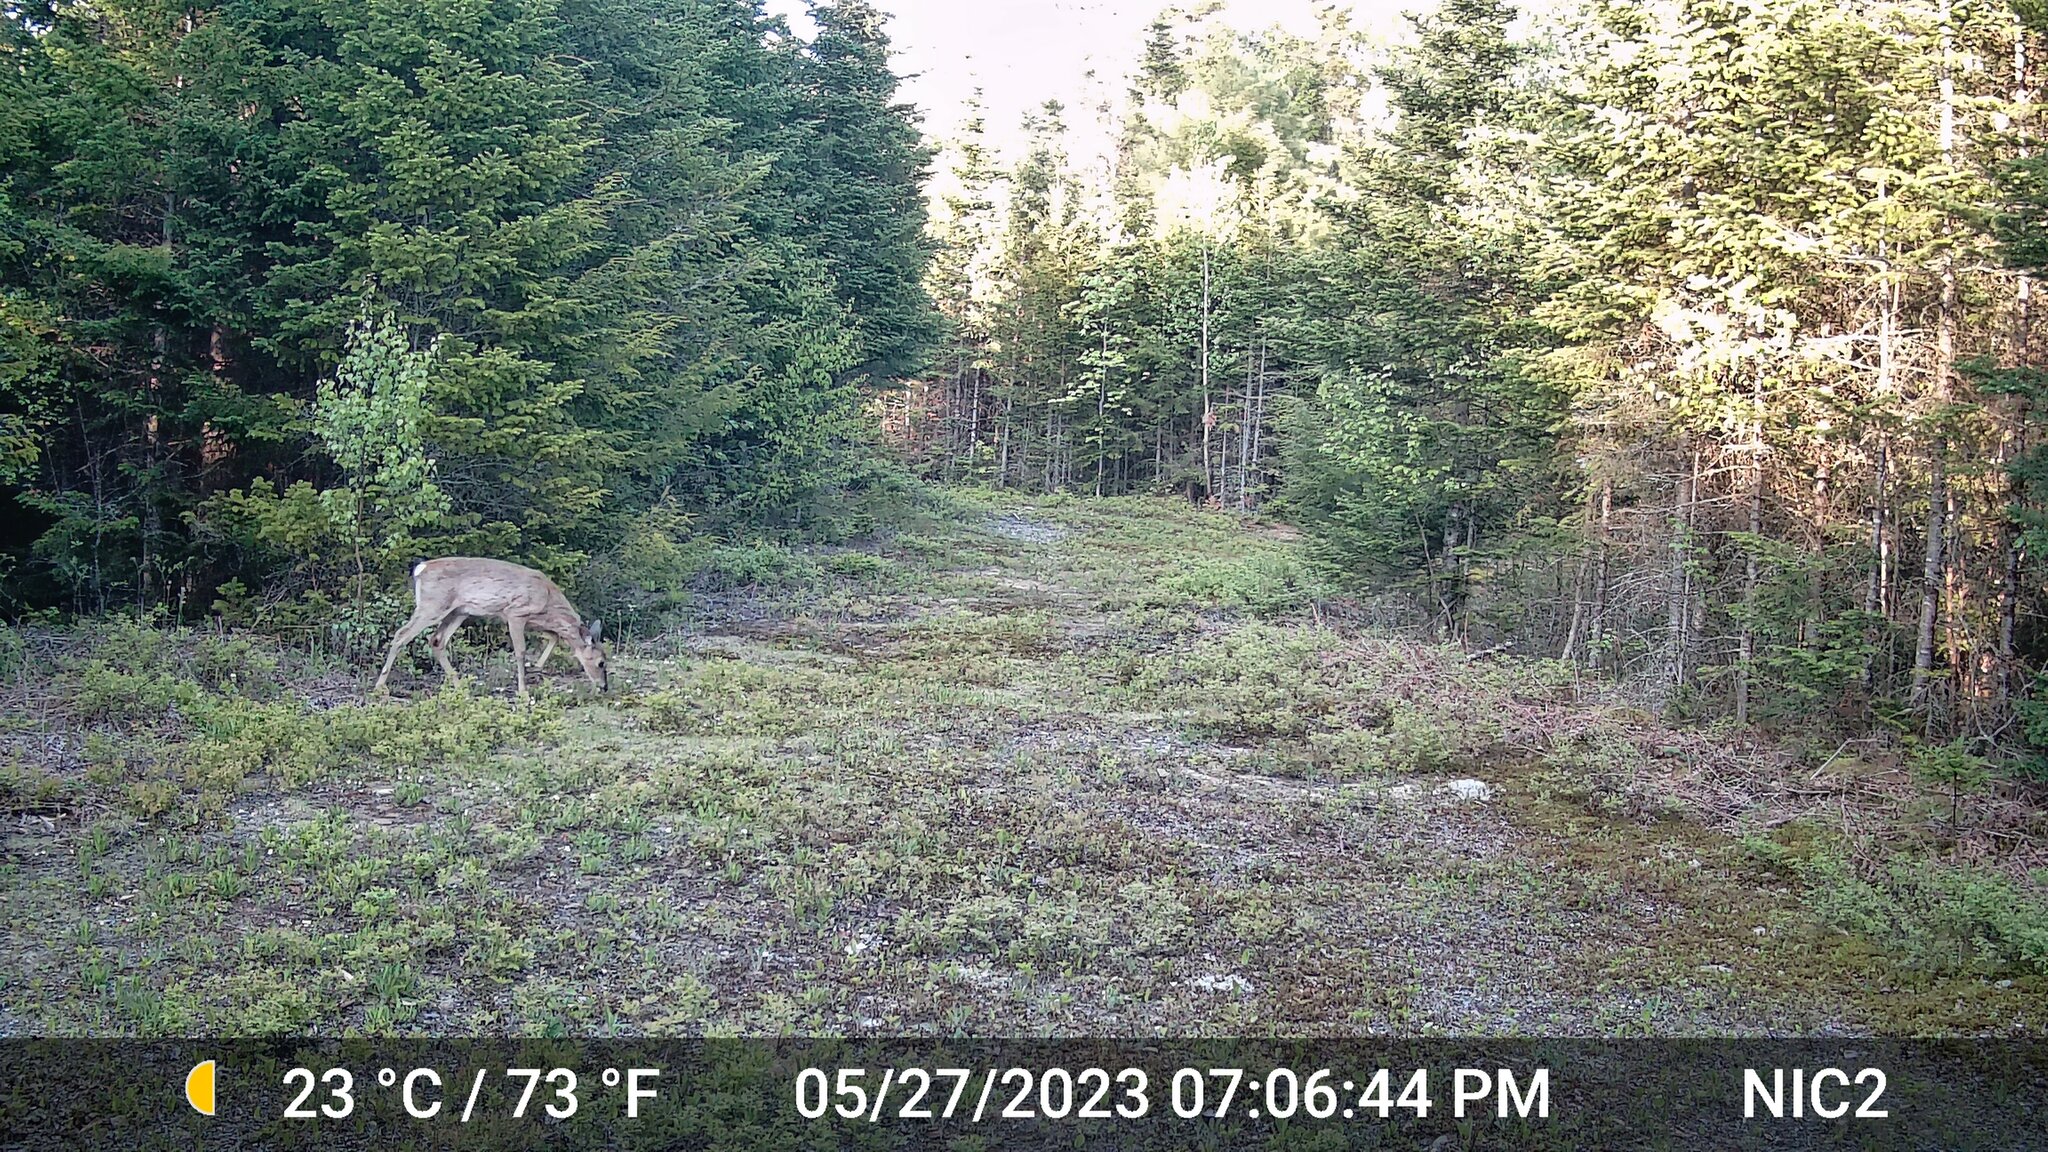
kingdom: Animalia
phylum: Chordata
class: Mammalia
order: Artiodactyla
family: Cervidae
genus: Odocoileus
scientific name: Odocoileus virginianus
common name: White-tailed deer
